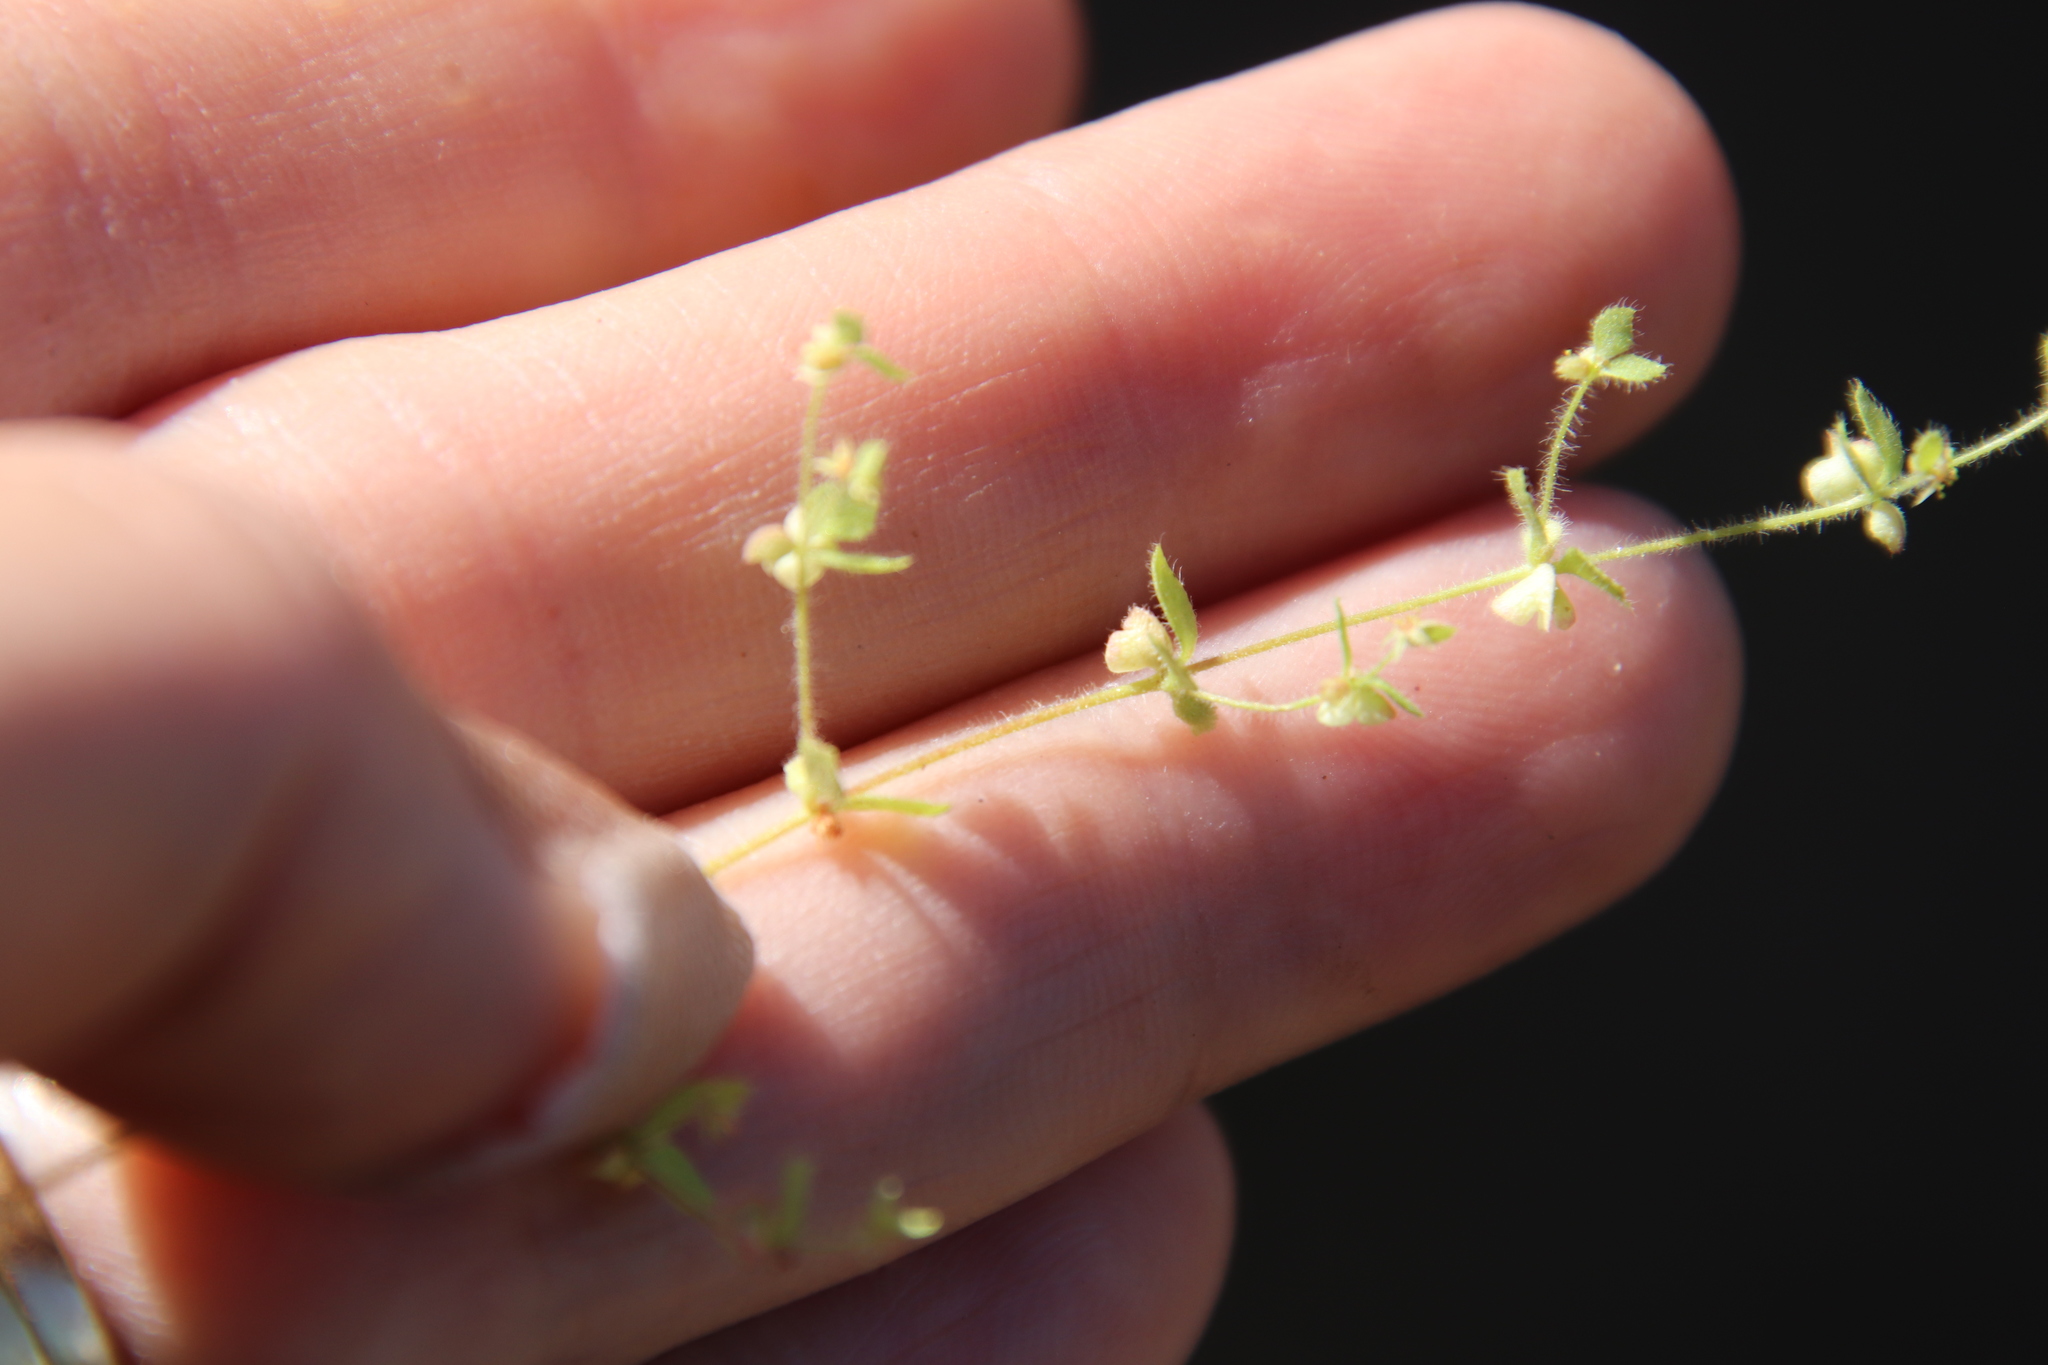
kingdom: Plantae
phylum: Tracheophyta
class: Magnoliopsida
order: Caryophyllales
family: Polygonaceae
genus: Pterostegia
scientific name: Pterostegia drymarioides
